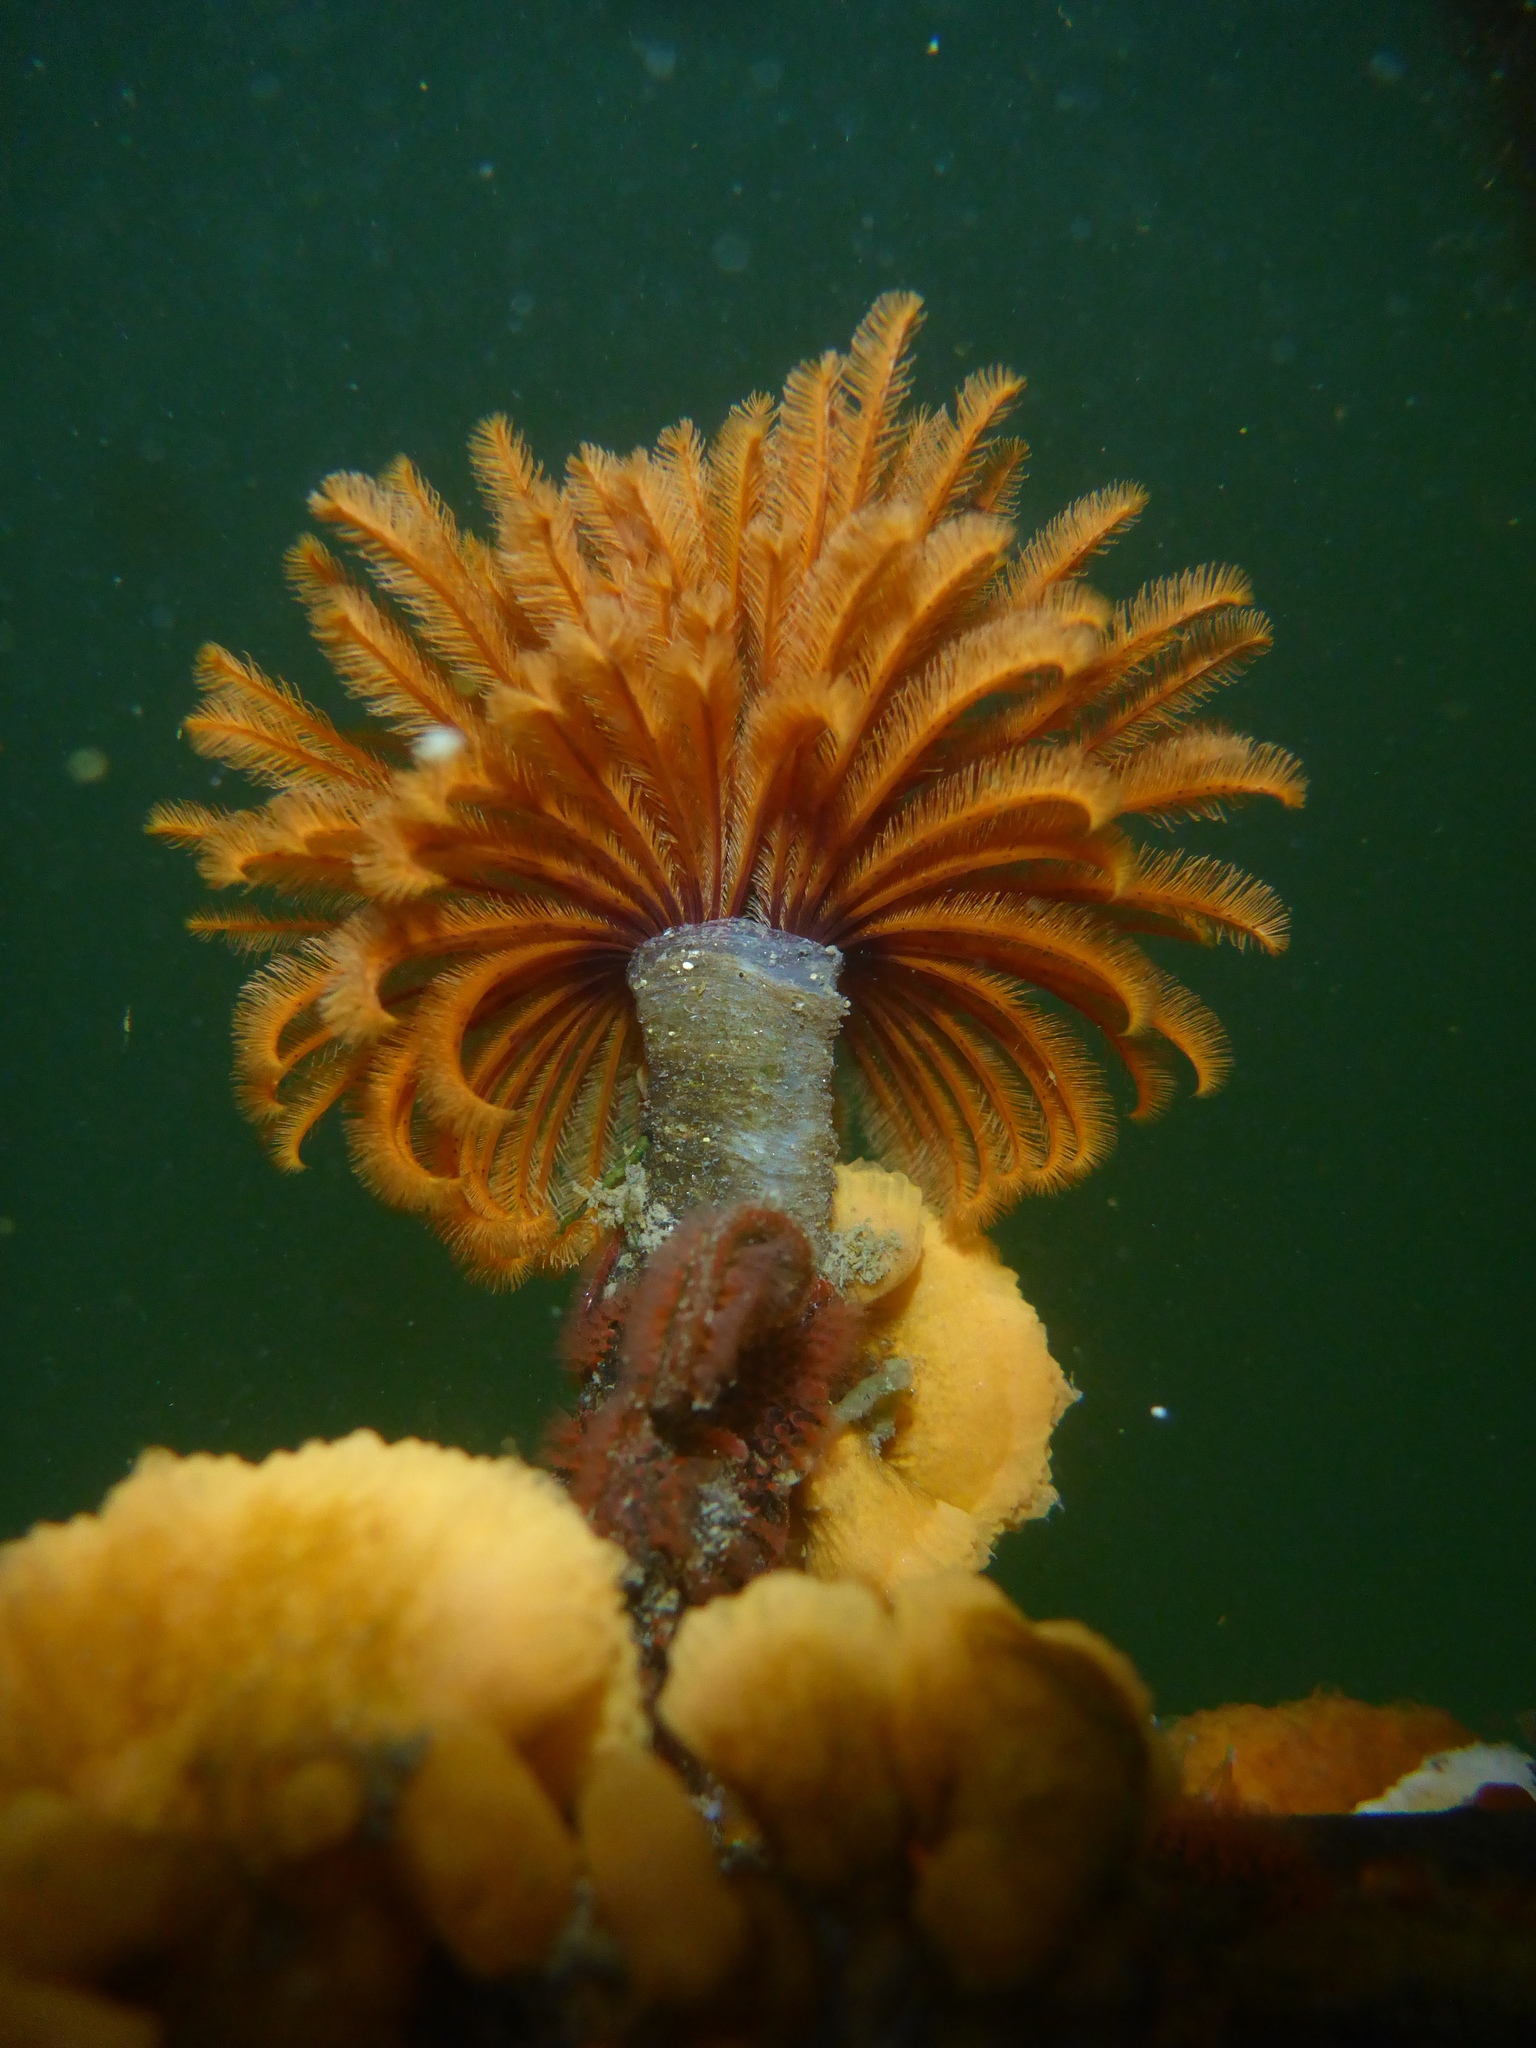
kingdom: Animalia
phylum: Annelida
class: Polychaeta
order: Sabellida
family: Sabellidae
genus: Eudistylia
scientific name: Eudistylia polymorpha
